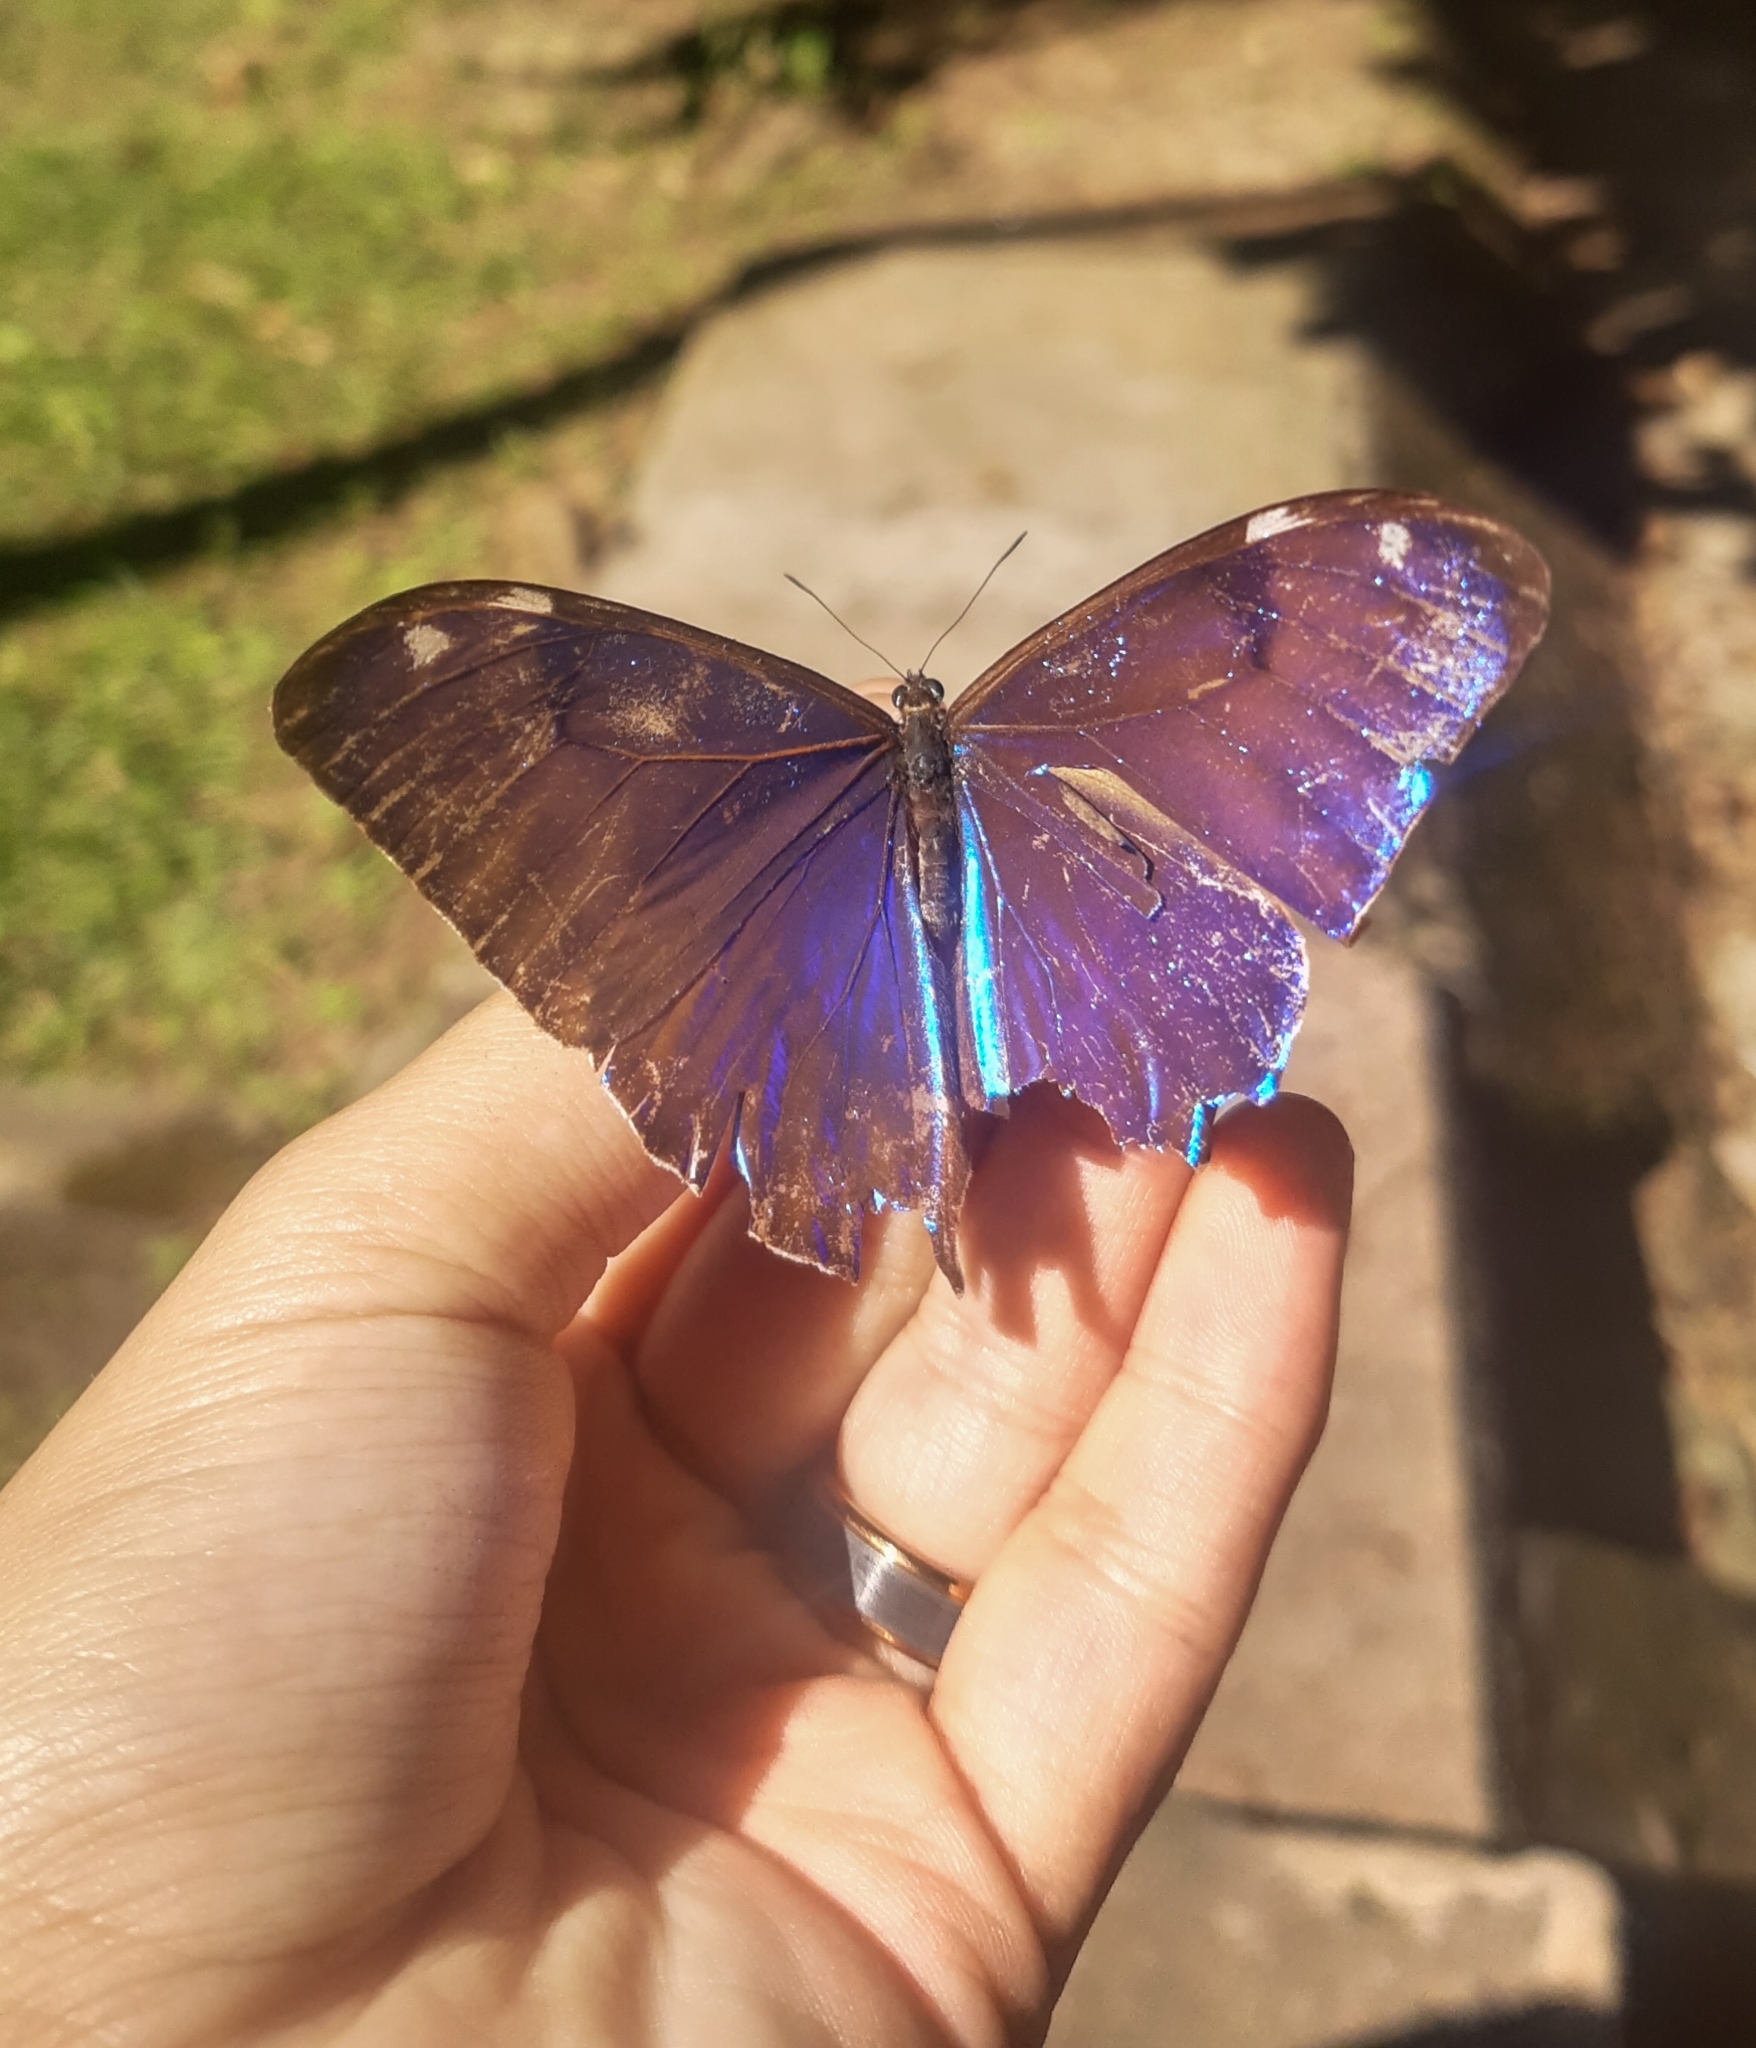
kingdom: Animalia
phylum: Arthropoda
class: Insecta
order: Lepidoptera
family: Nymphalidae
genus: Morpho
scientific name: Morpho aega
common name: Aega morpho
